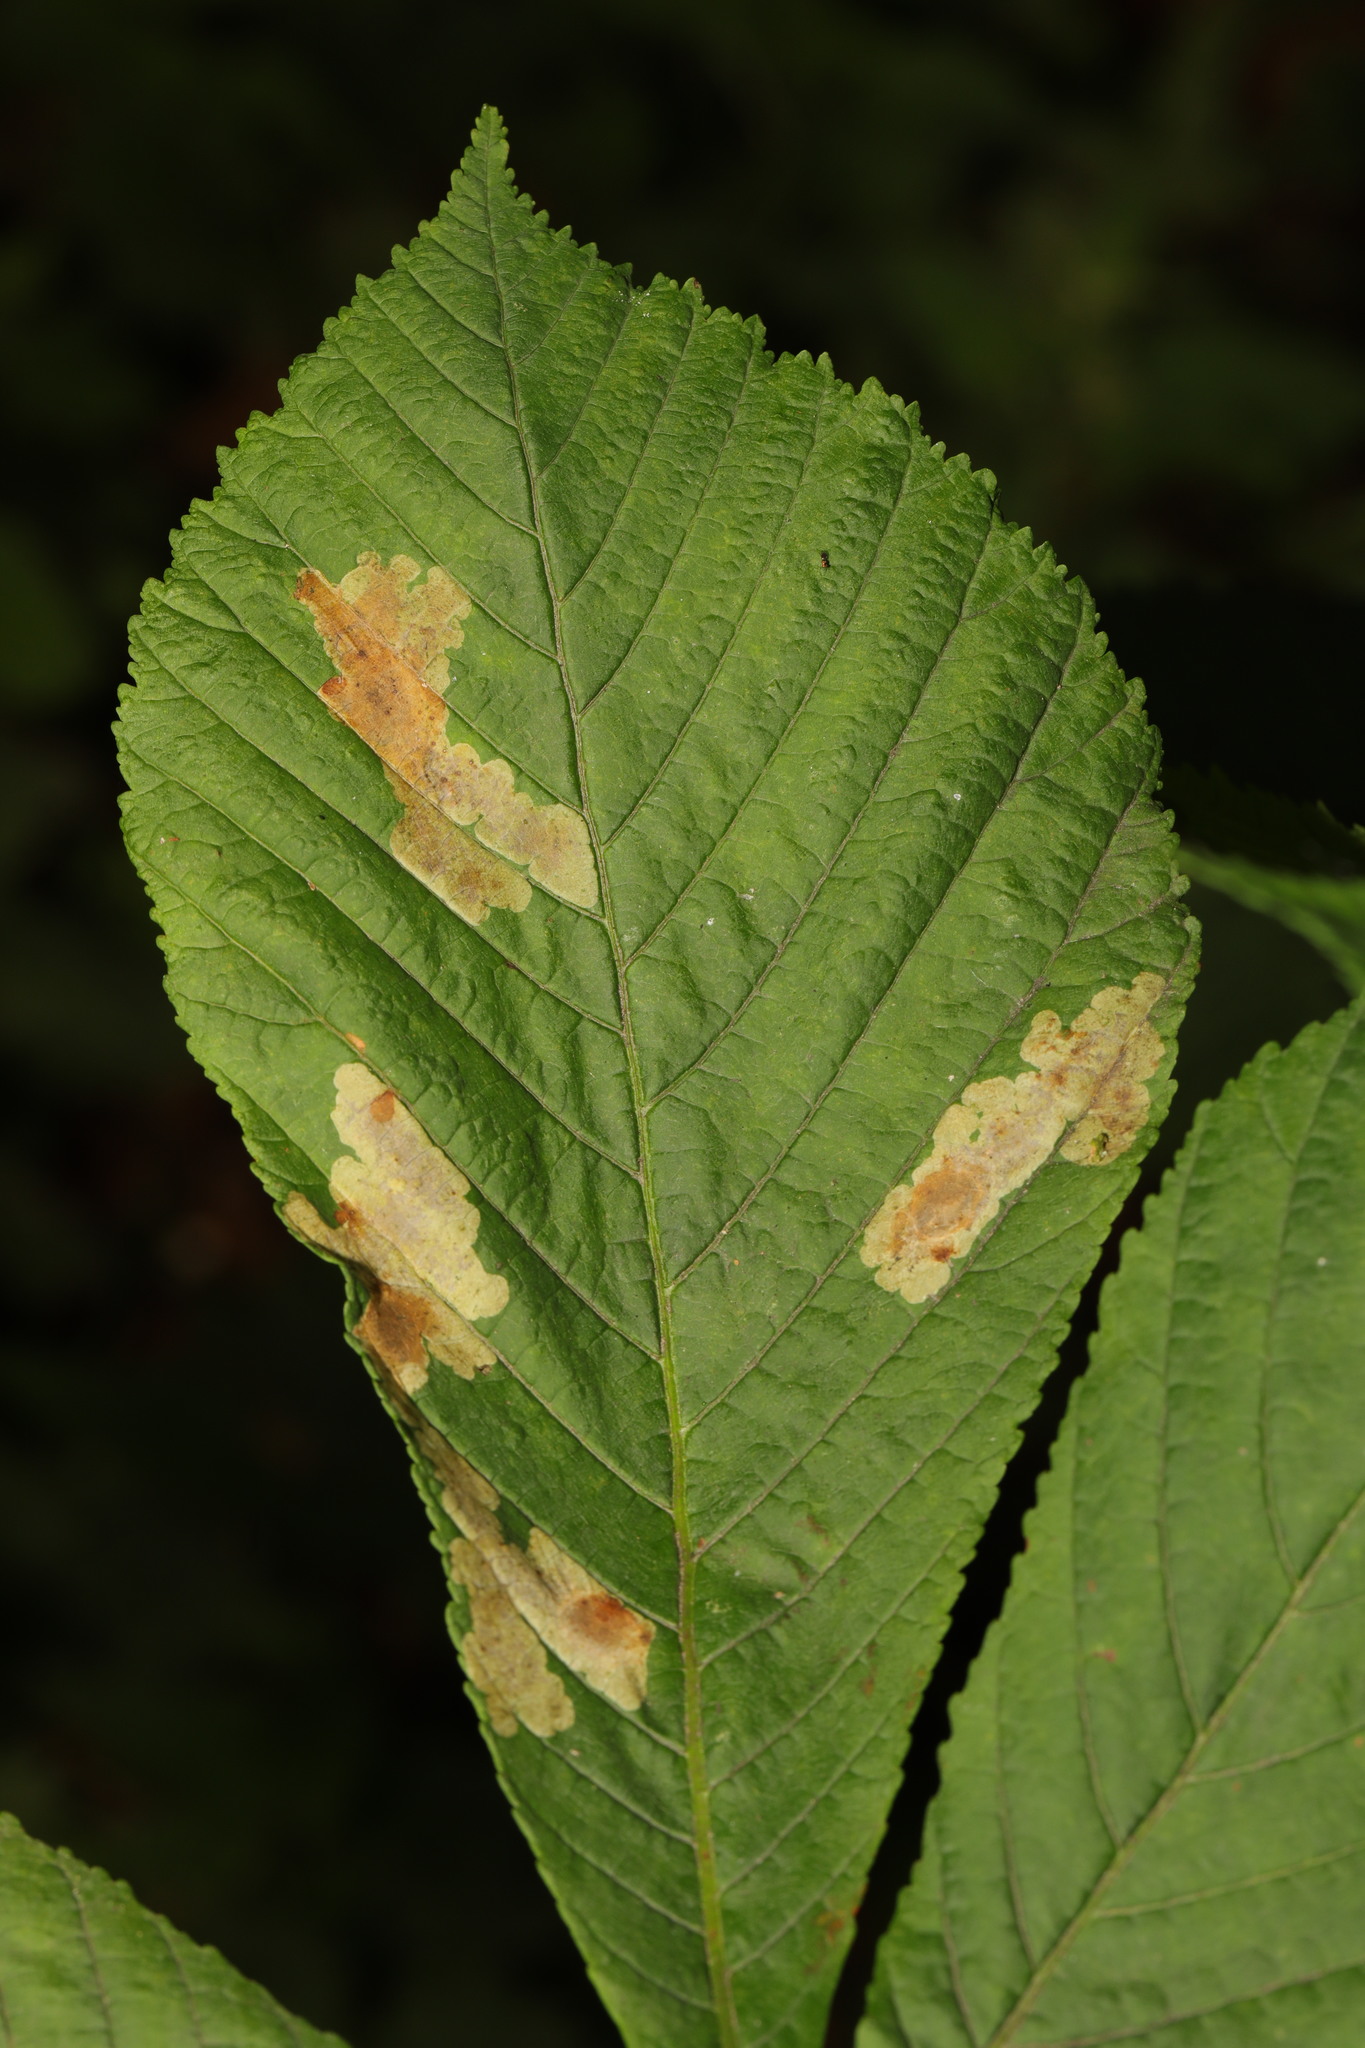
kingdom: Animalia
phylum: Arthropoda
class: Insecta
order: Lepidoptera
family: Gracillariidae
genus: Cameraria
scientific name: Cameraria ohridella
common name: Horse-chestnut leaf-miner
